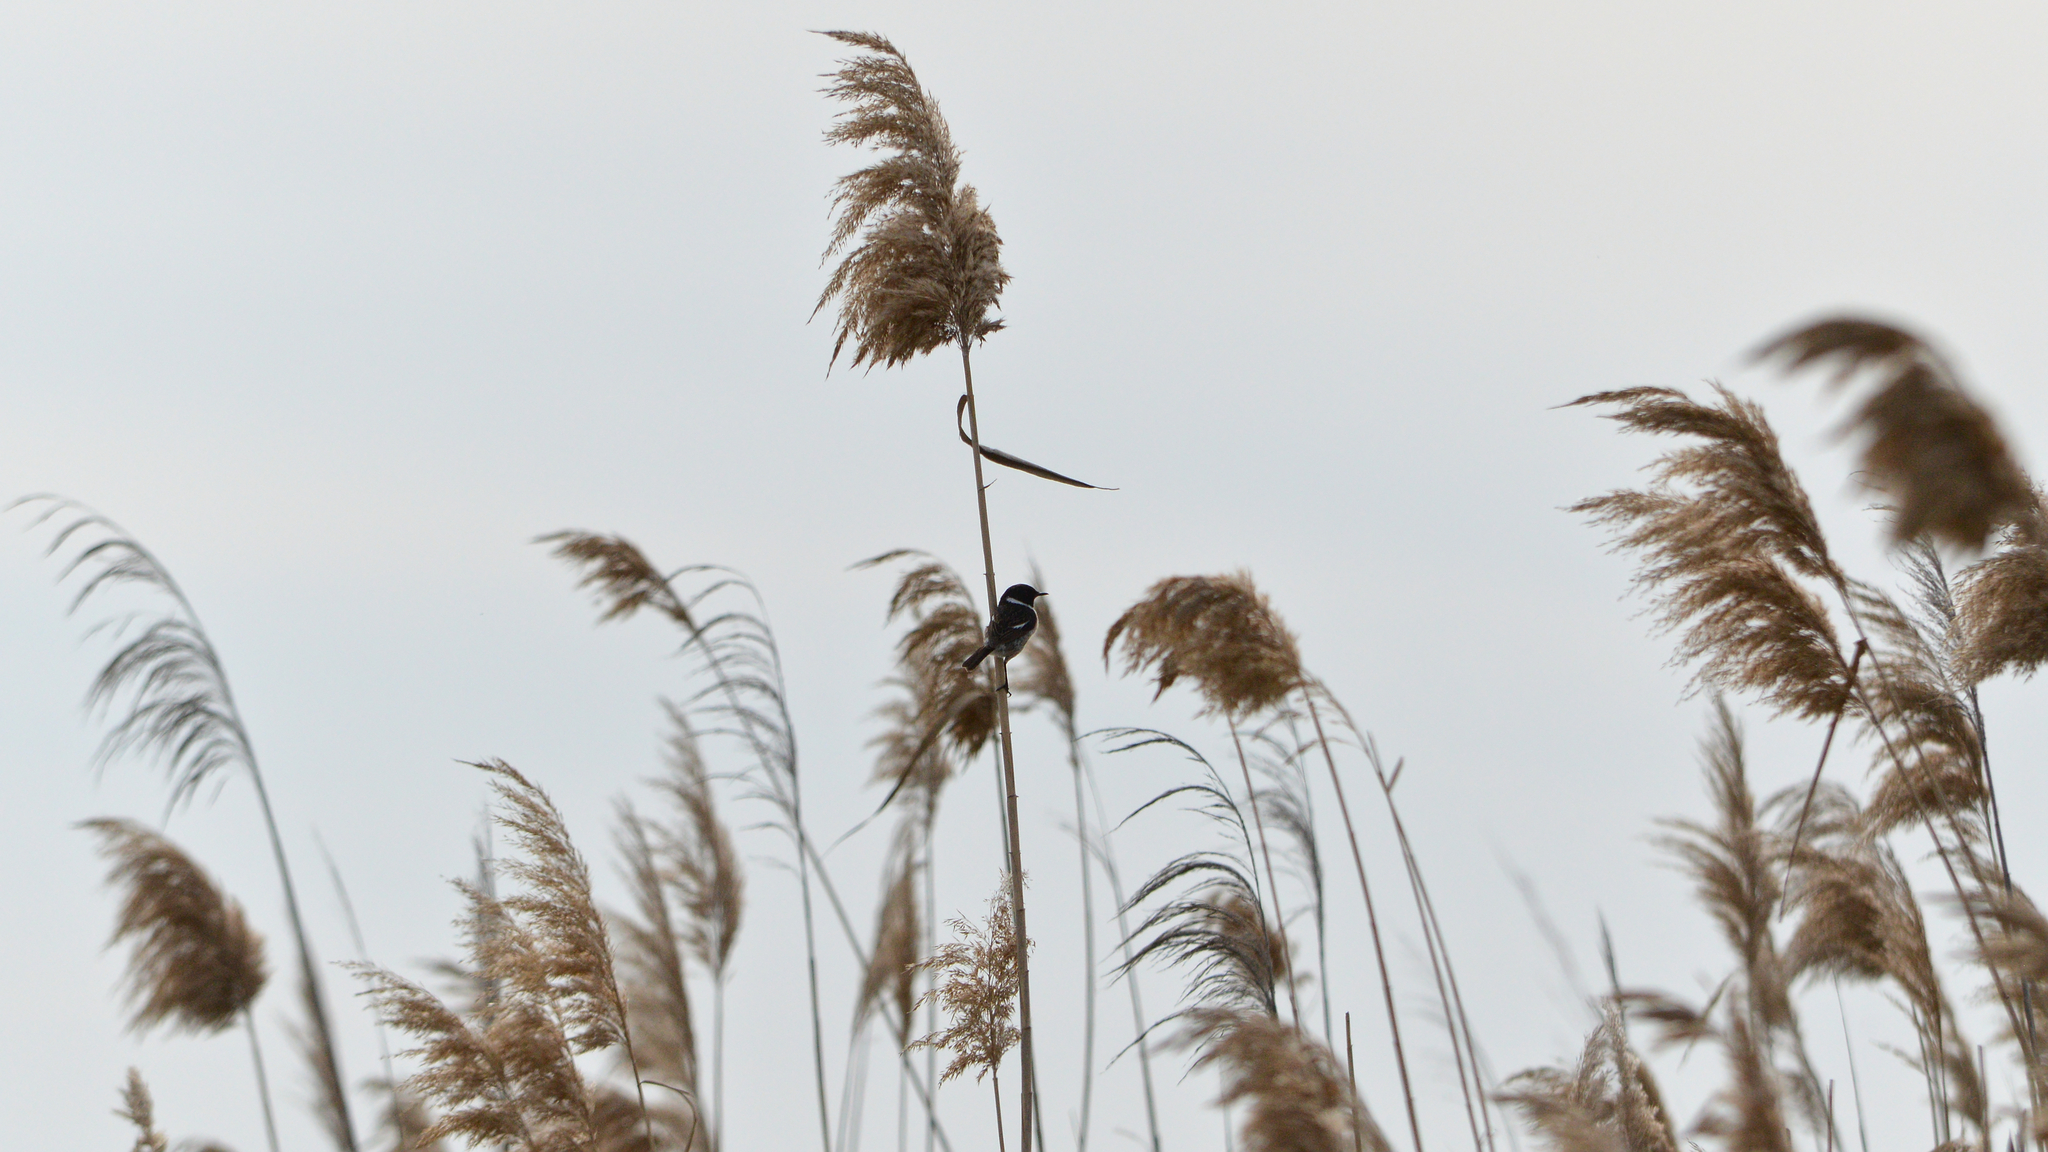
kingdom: Plantae
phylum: Tracheophyta
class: Liliopsida
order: Poales
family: Poaceae
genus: Phragmites
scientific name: Phragmites australis
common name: Common reed
